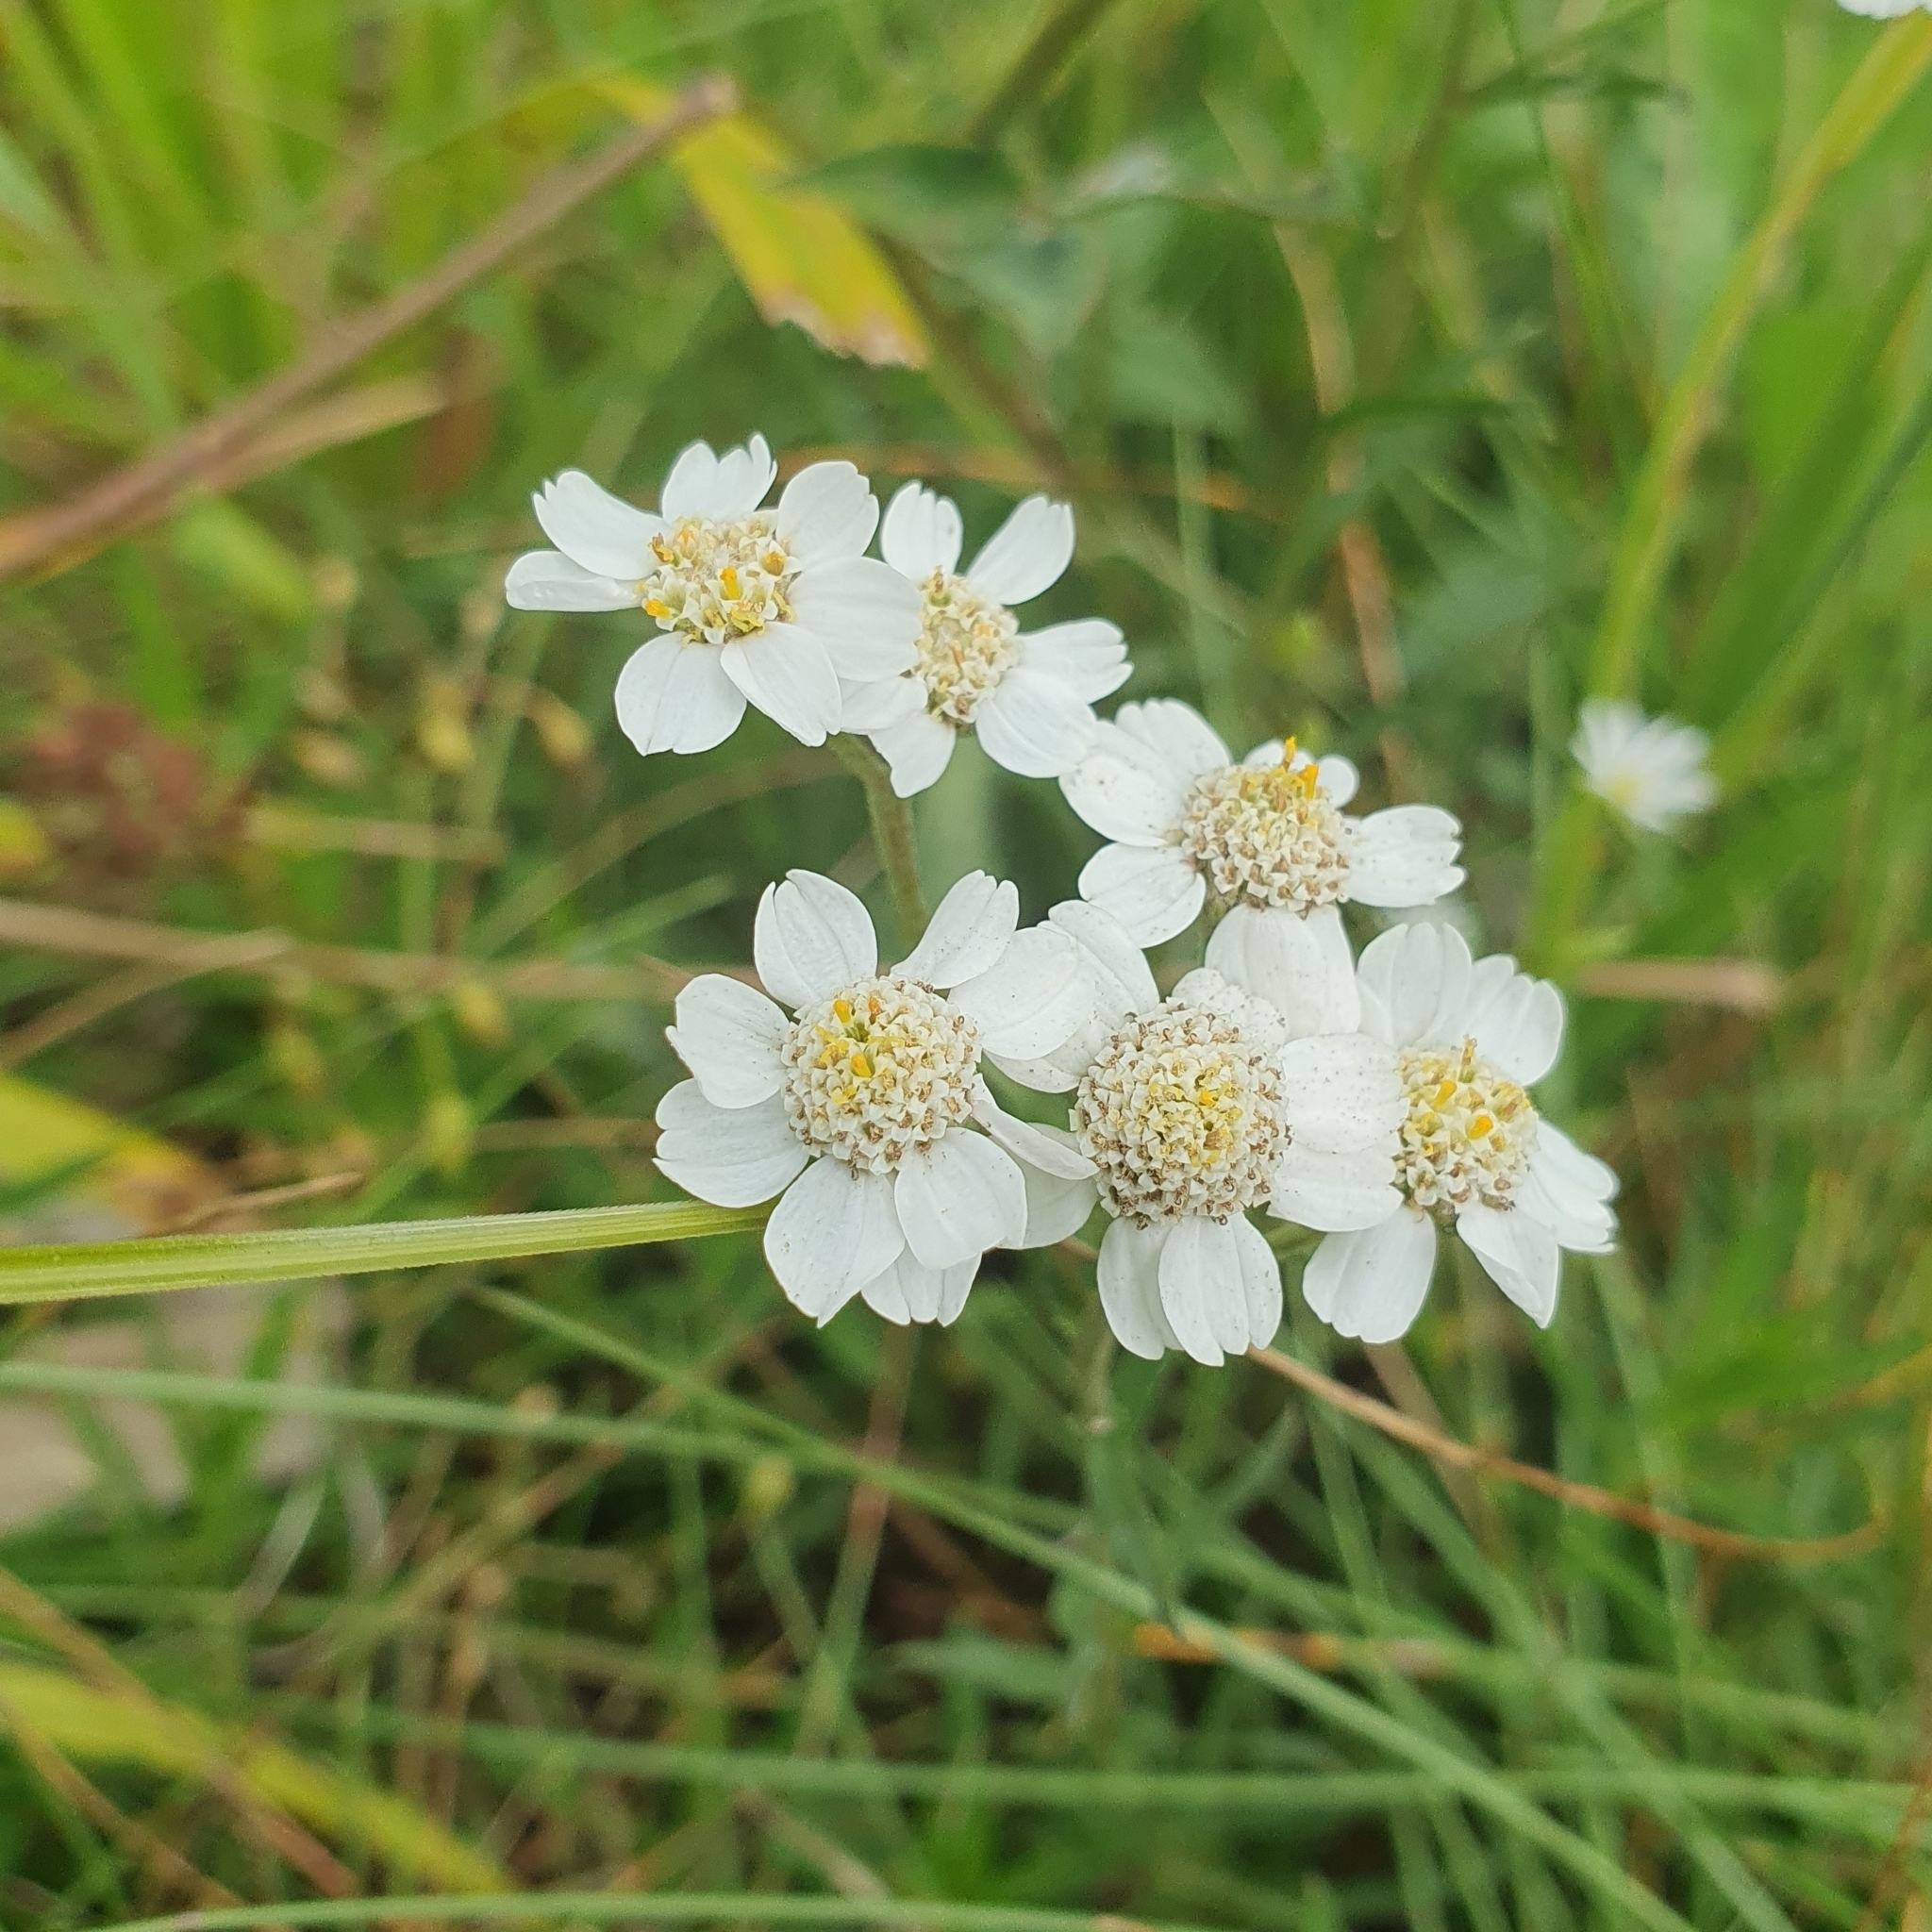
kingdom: Plantae
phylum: Tracheophyta
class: Magnoliopsida
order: Asterales
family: Asteraceae
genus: Achillea
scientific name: Achillea ptarmica
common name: Sneezeweed
